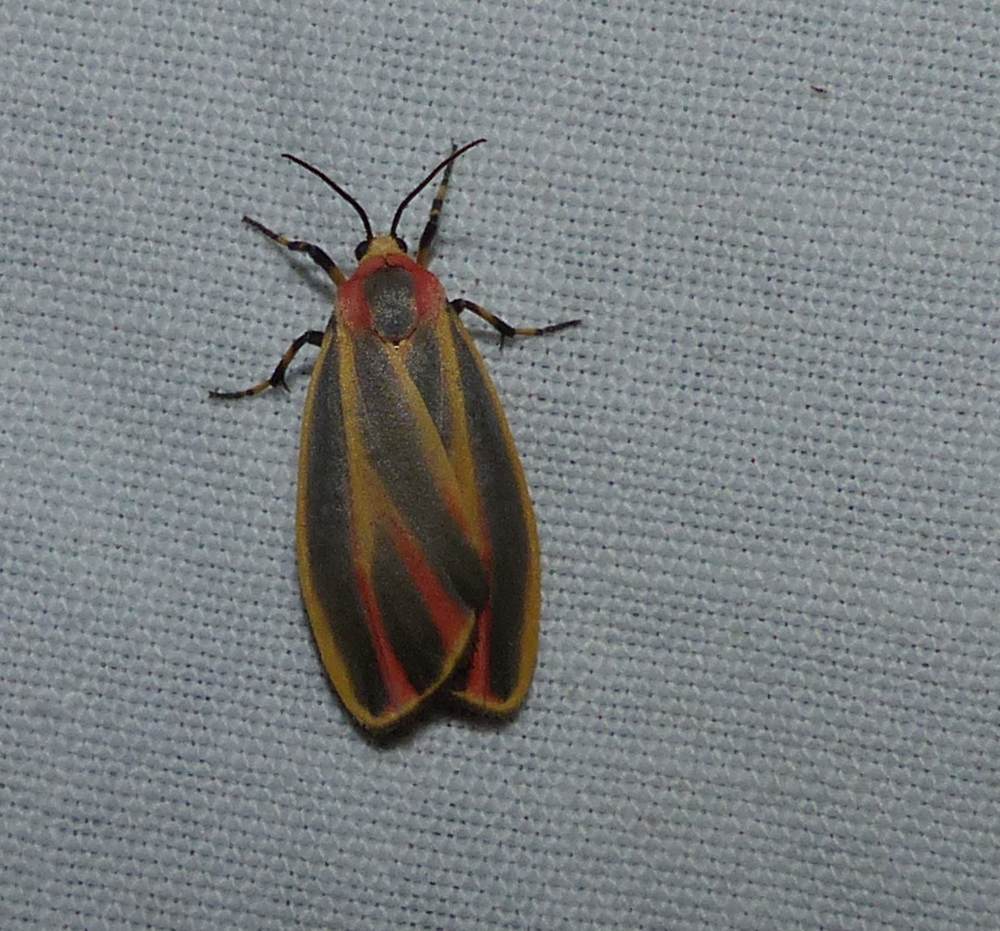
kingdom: Animalia
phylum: Arthropoda
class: Insecta
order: Lepidoptera
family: Erebidae
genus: Hypoprepia
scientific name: Hypoprepia fucosa
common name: Painted lichen moth
